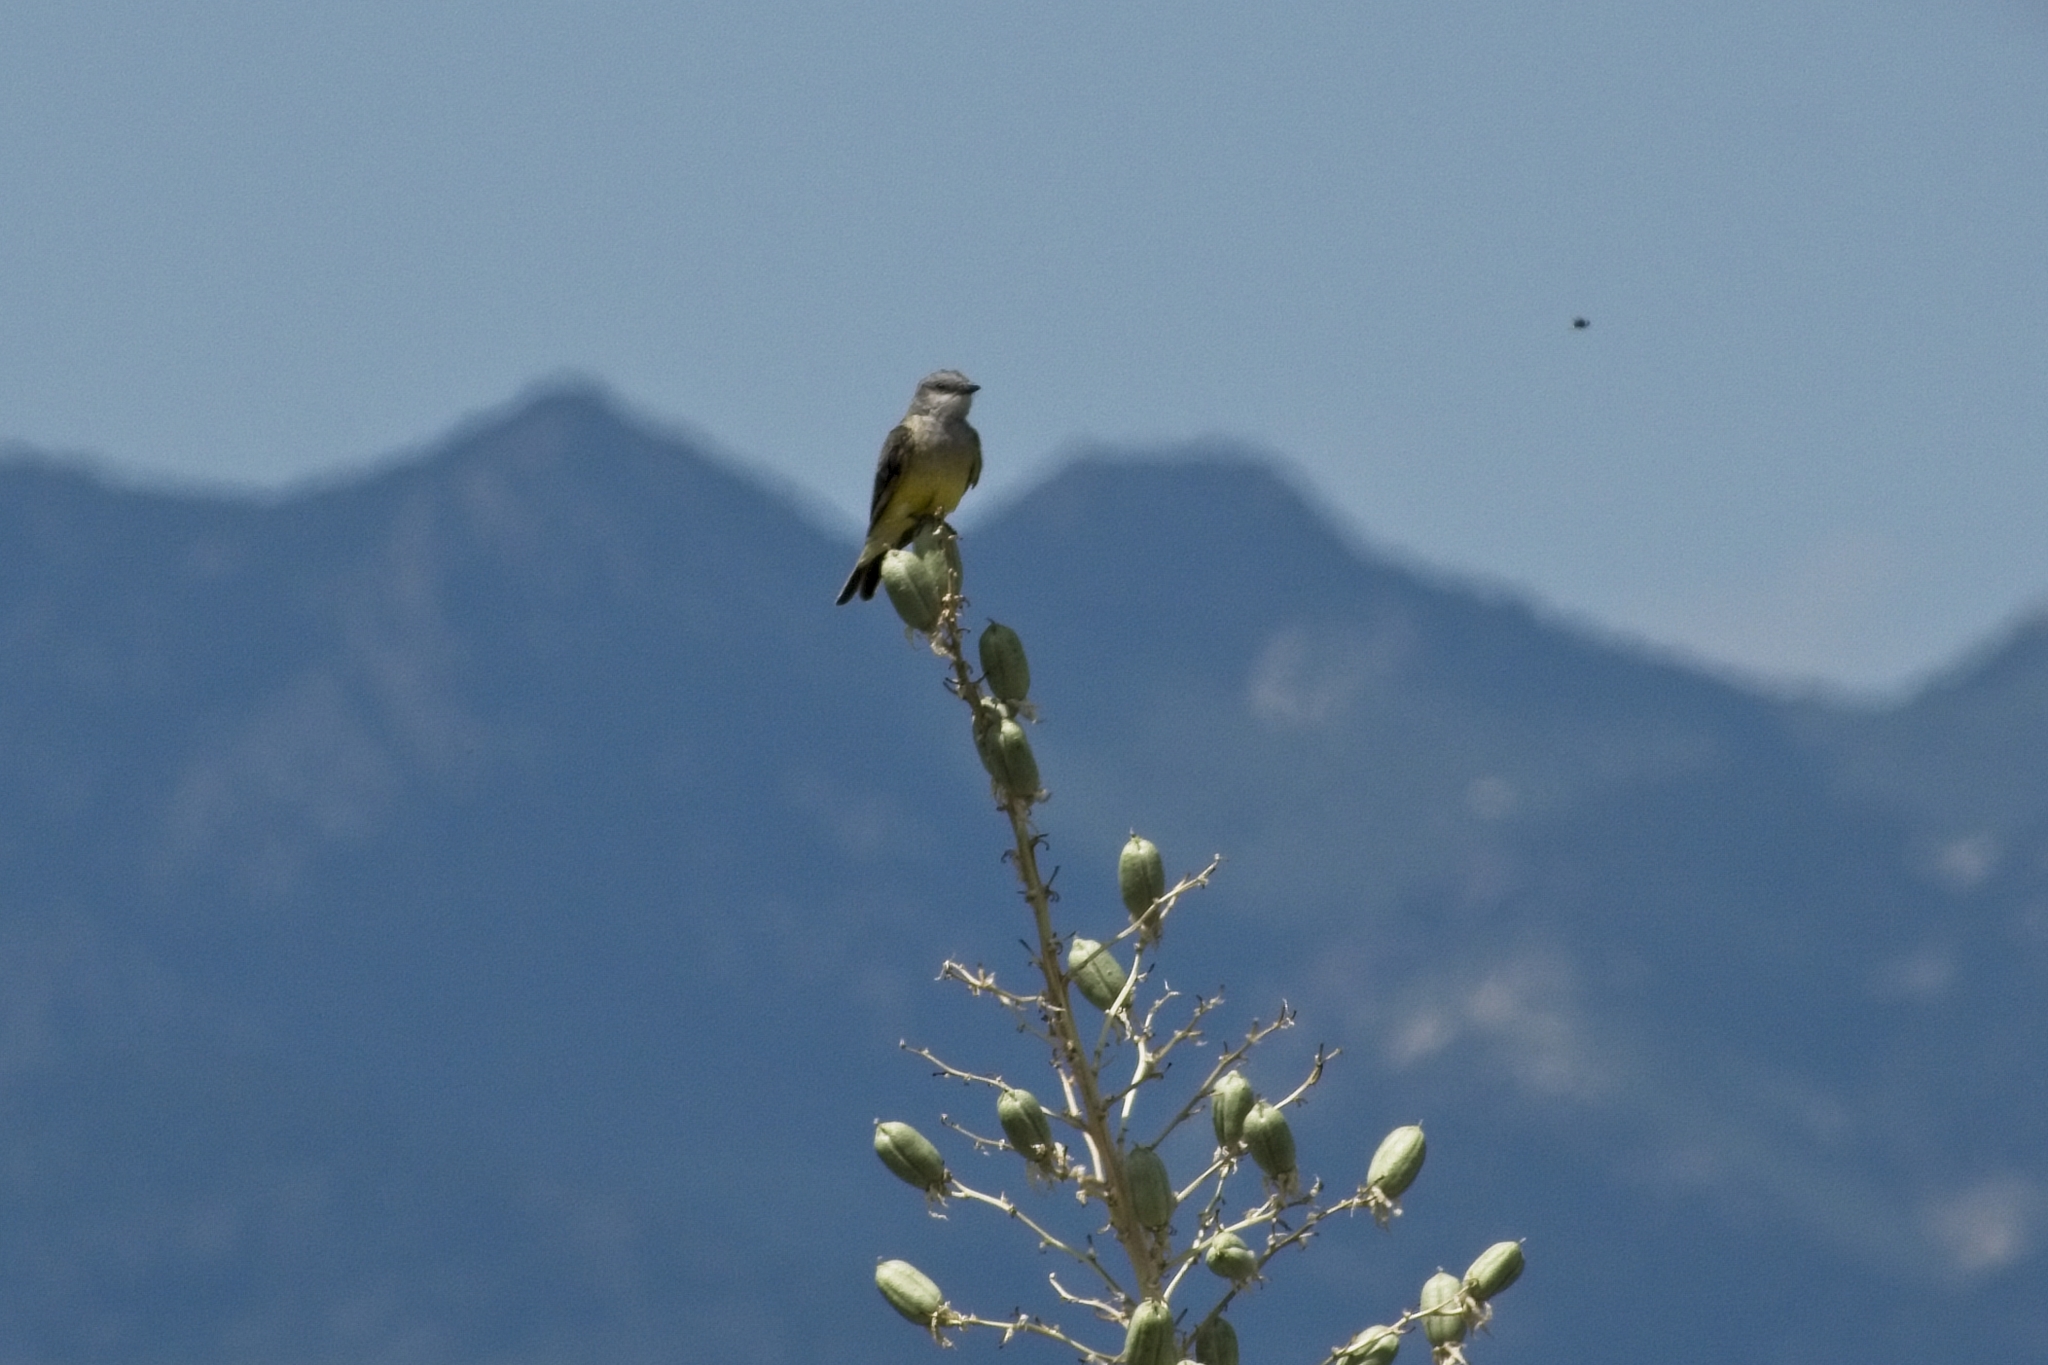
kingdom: Animalia
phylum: Chordata
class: Aves
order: Passeriformes
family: Tyrannidae
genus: Tyrannus
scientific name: Tyrannus verticalis
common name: Western kingbird
